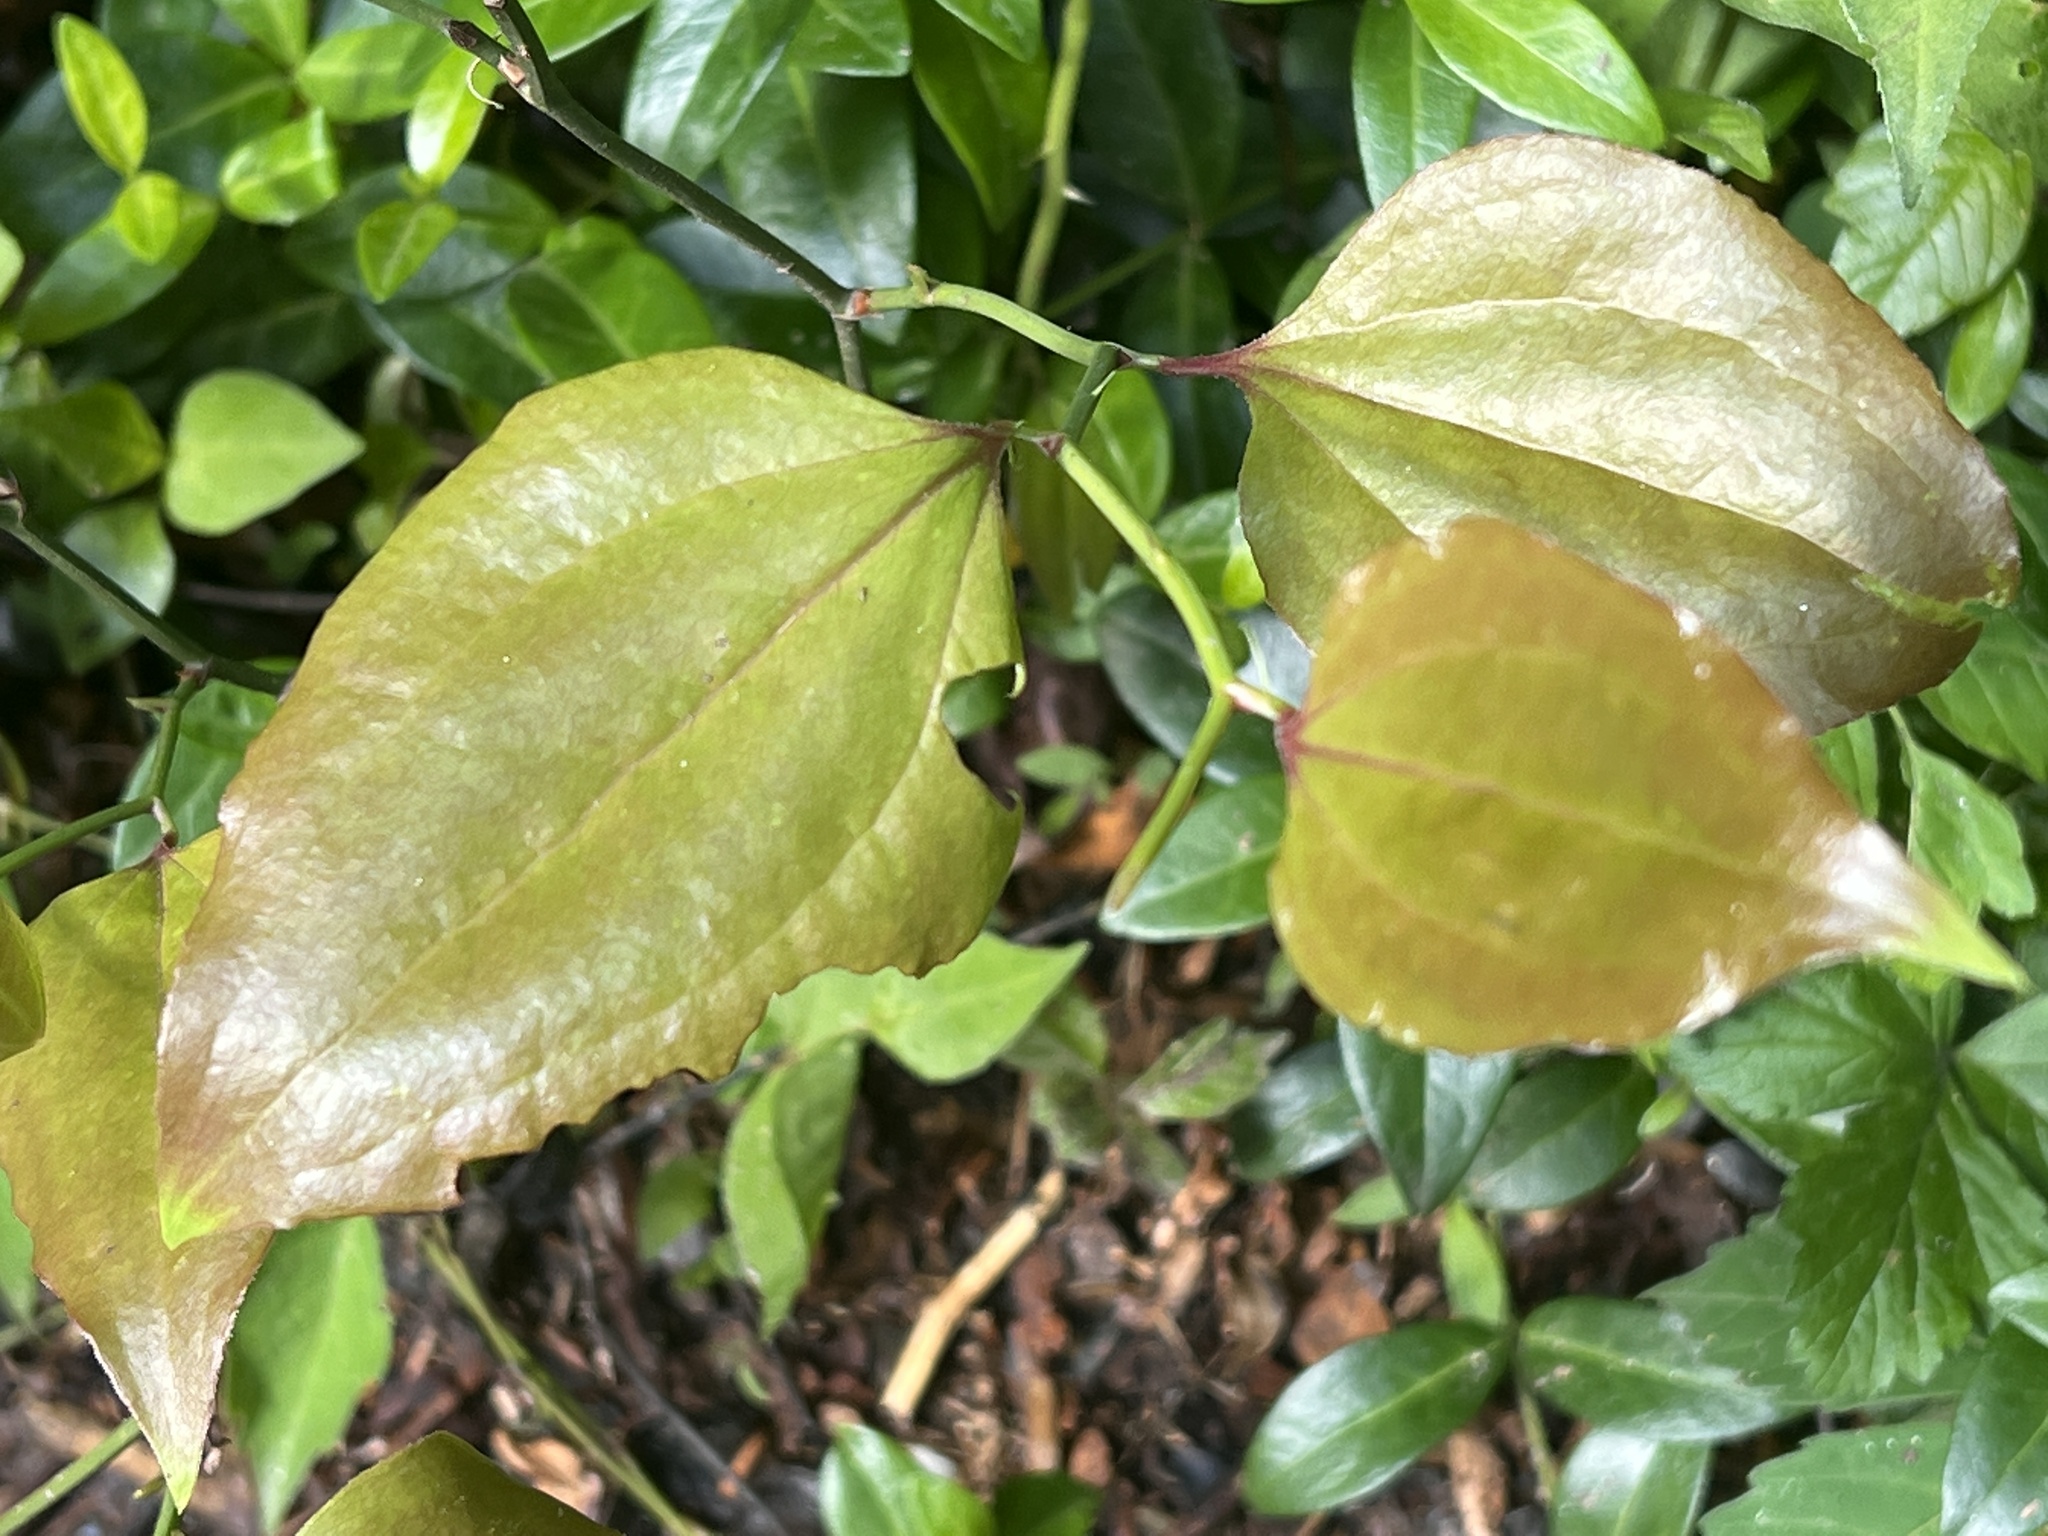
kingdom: Plantae
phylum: Tracheophyta
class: Liliopsida
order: Liliales
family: Smilacaceae
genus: Smilax
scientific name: Smilax rotundifolia
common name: Bullbriar
